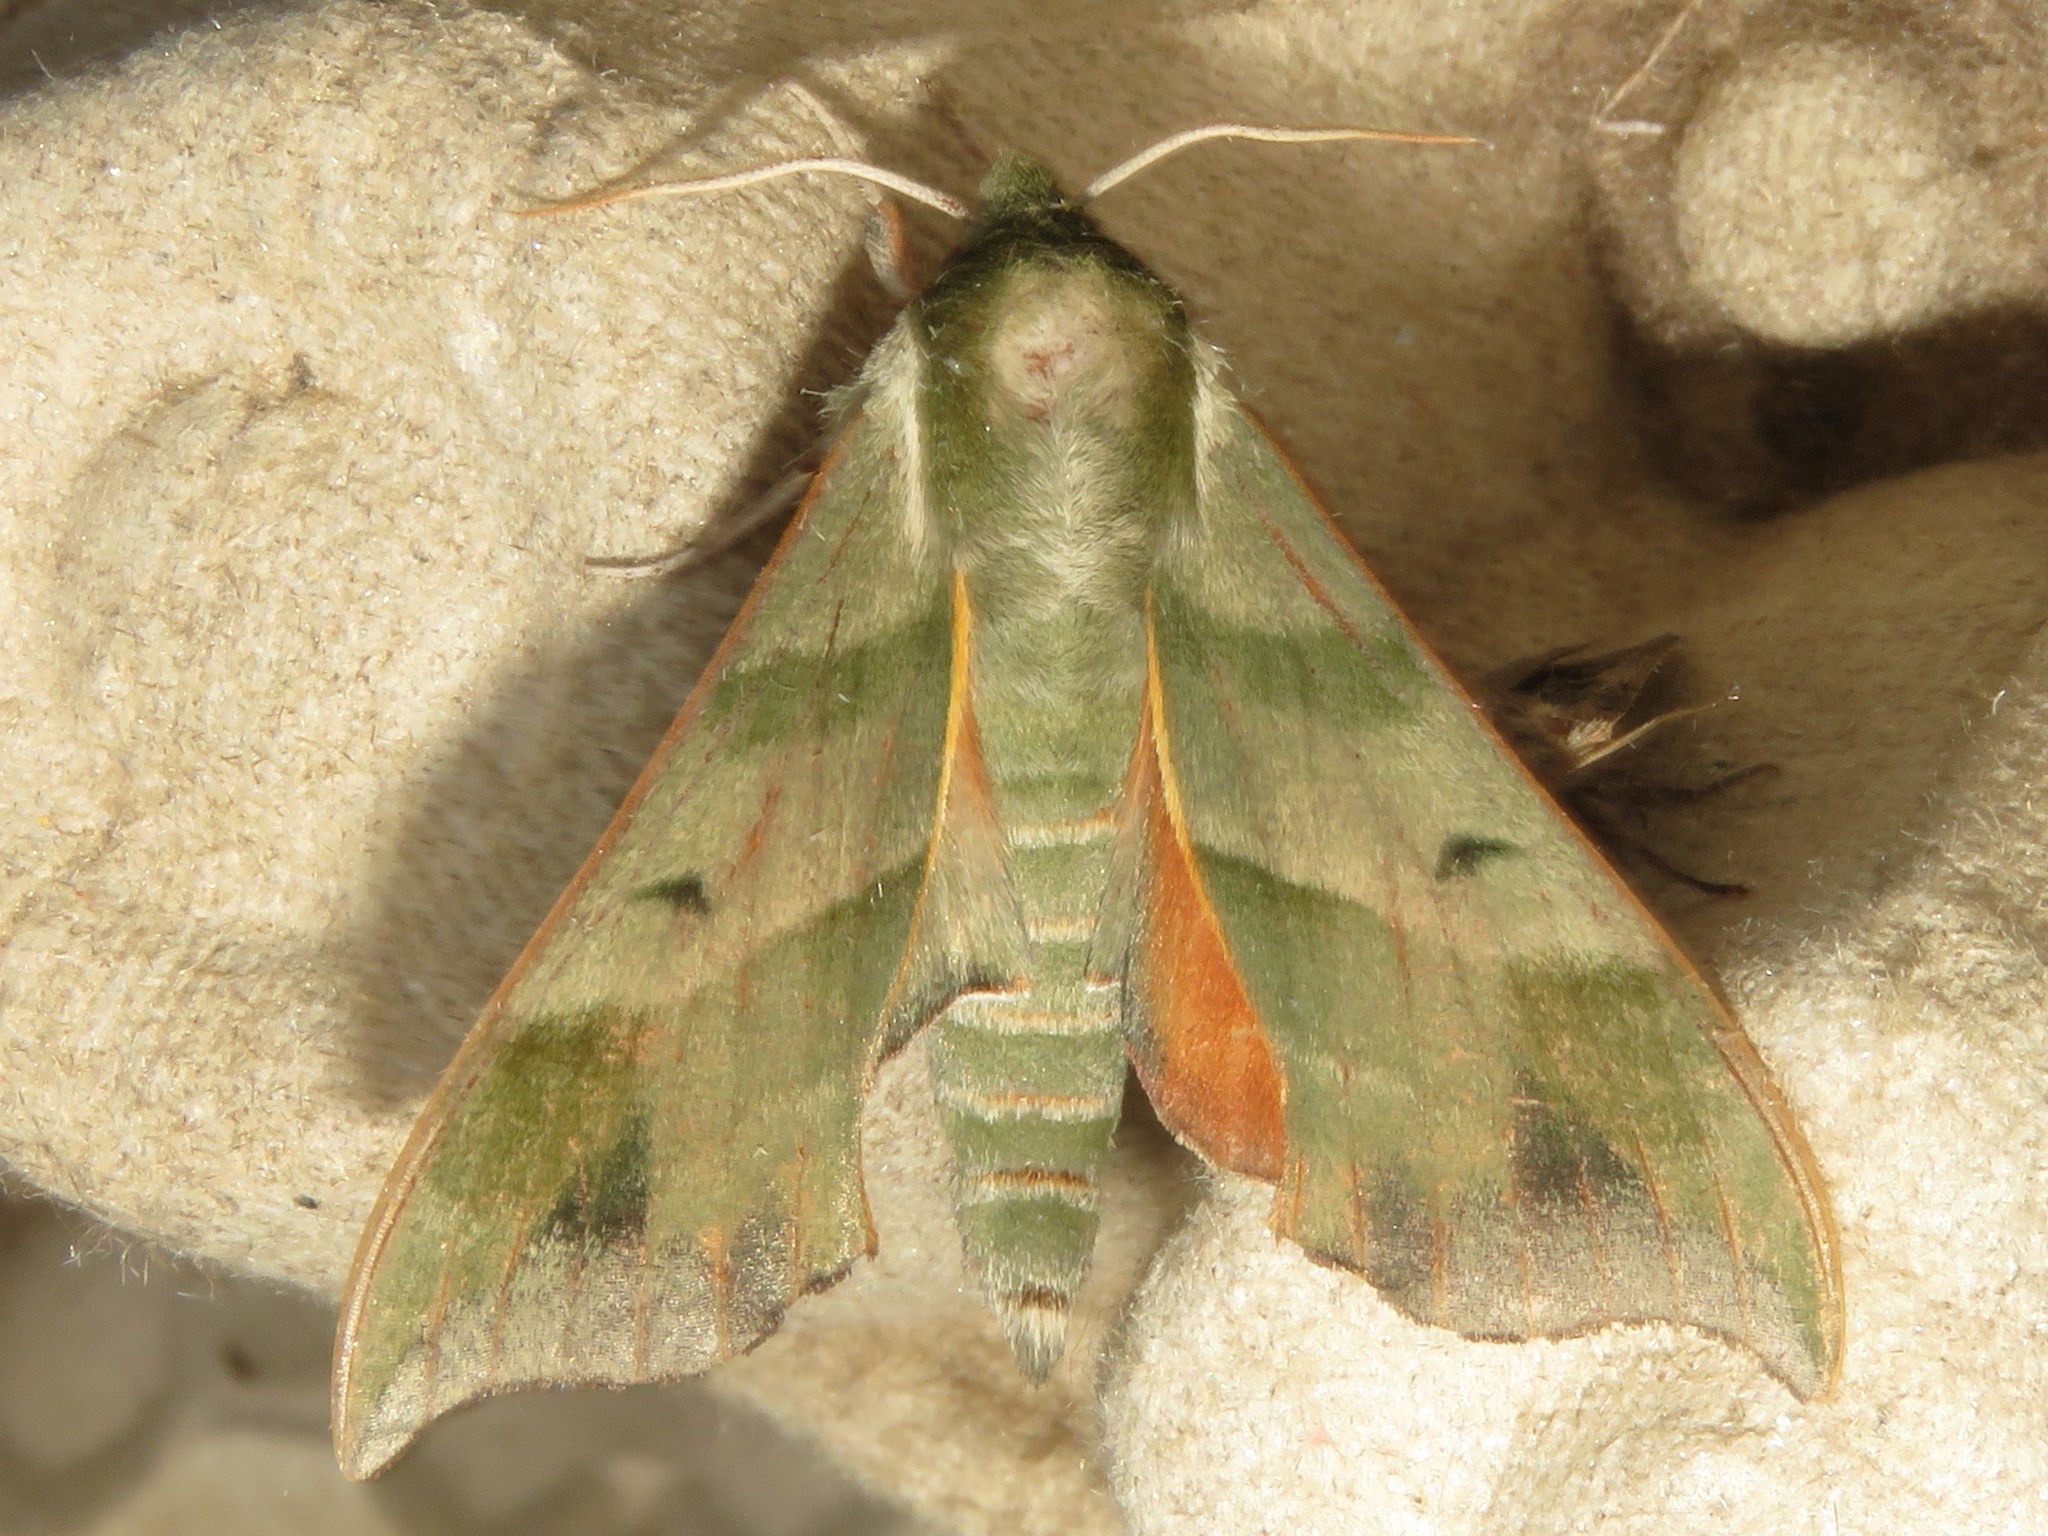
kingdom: Animalia
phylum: Arthropoda
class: Insecta
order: Lepidoptera
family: Sphingidae
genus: Darapsa
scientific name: Darapsa myron
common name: Hog sphinx
